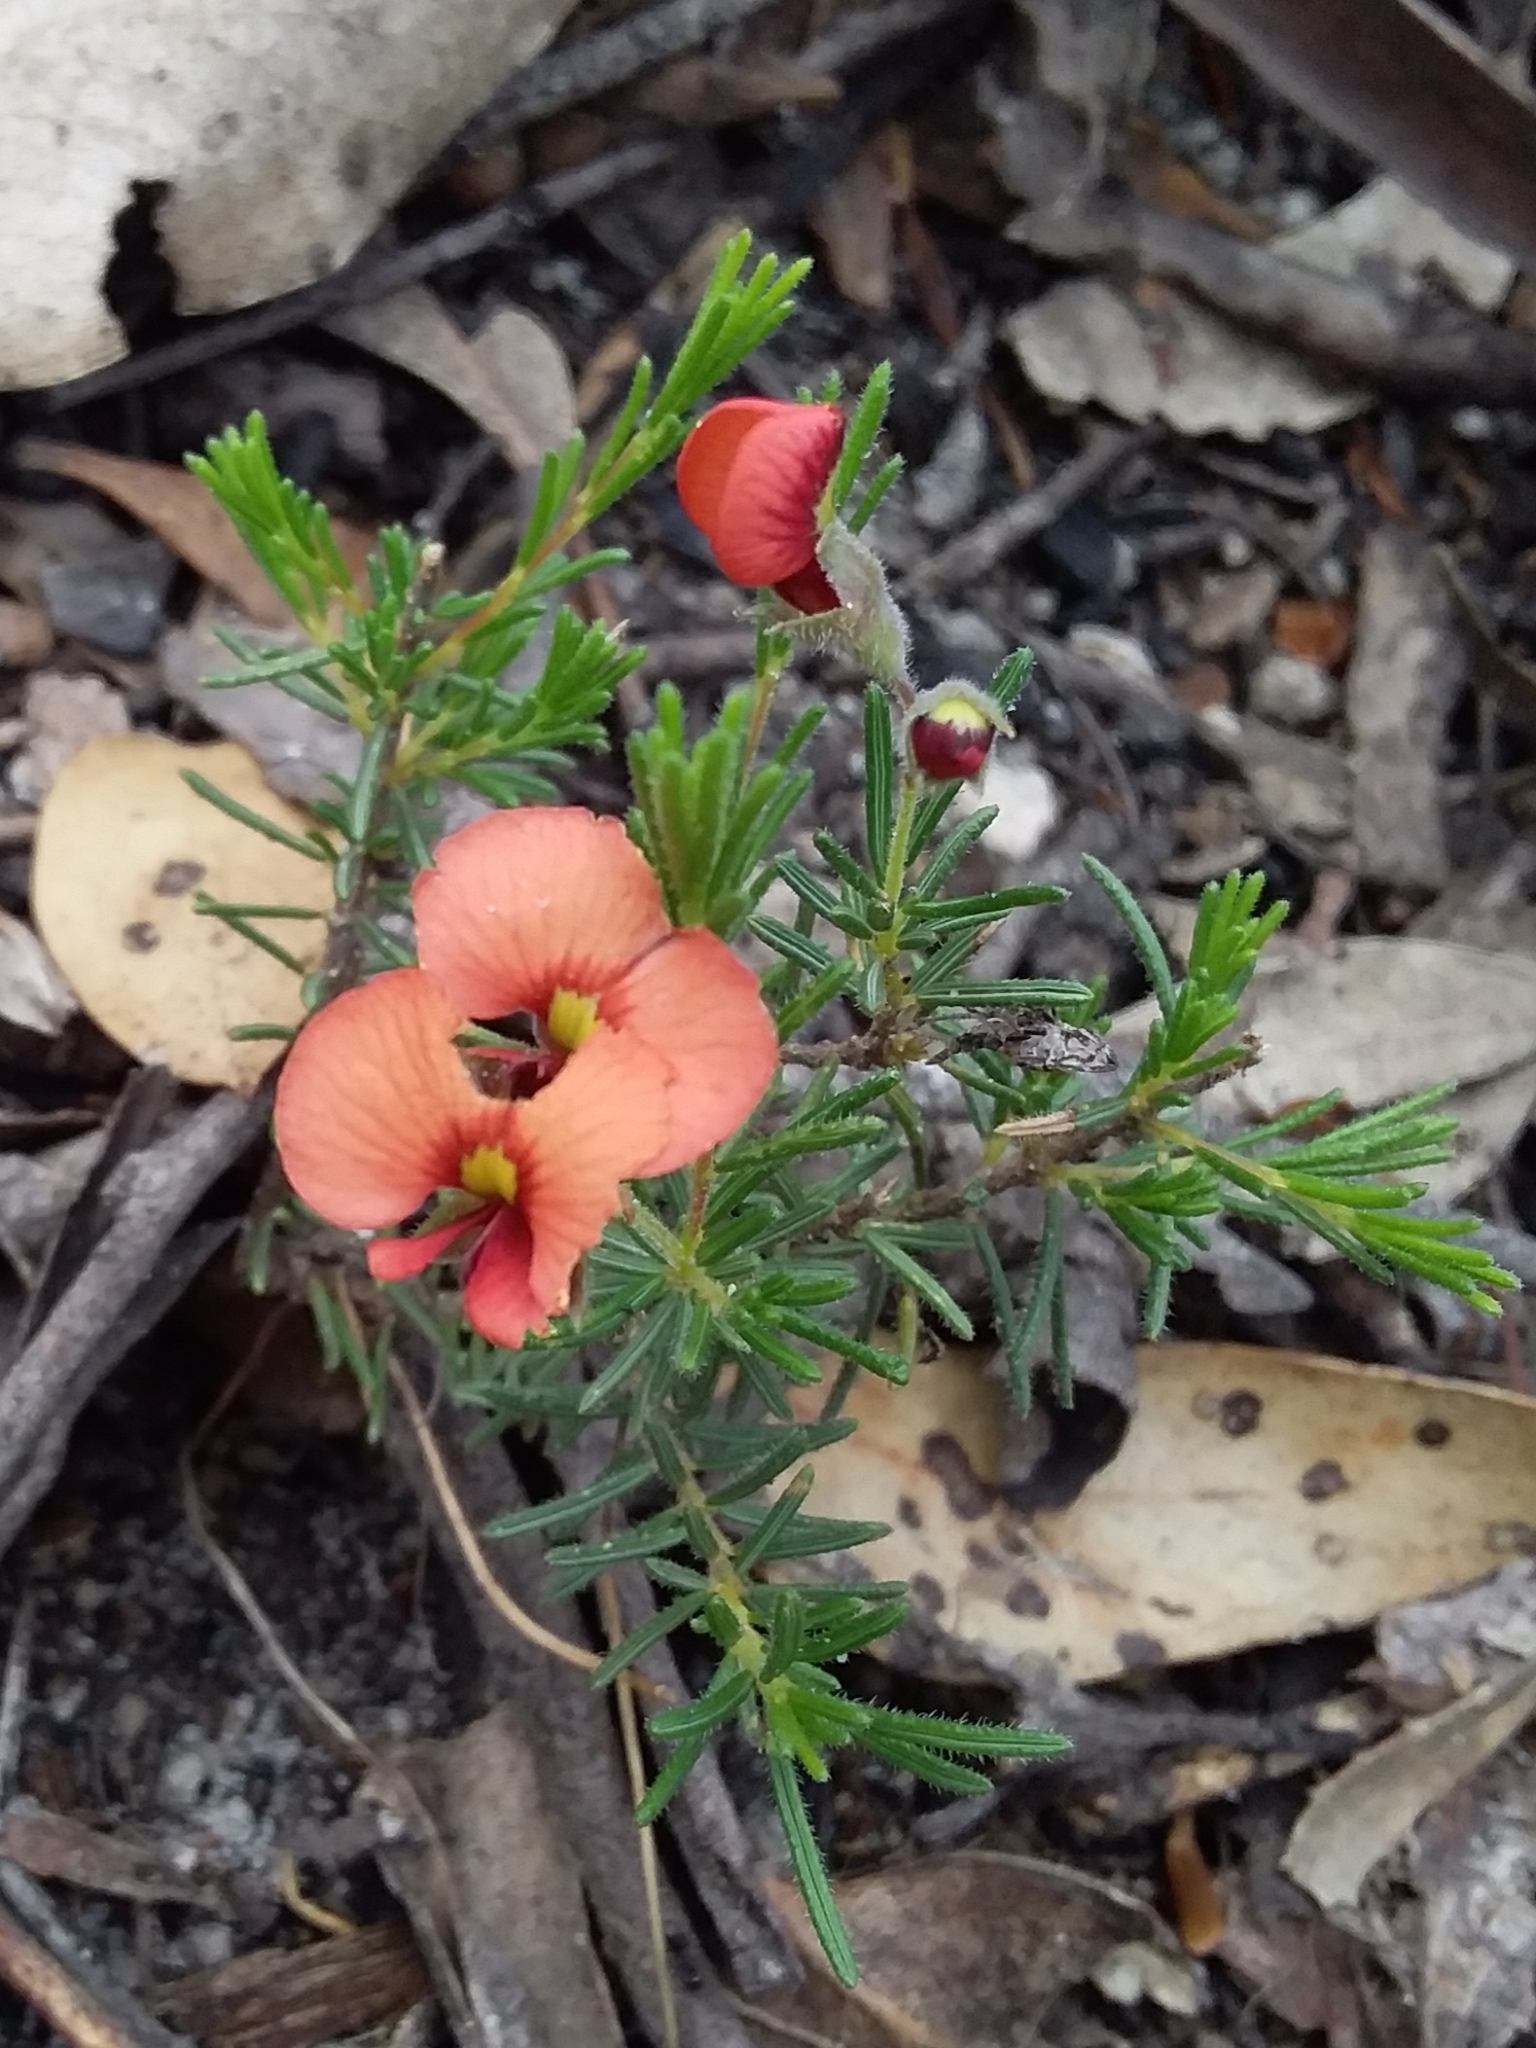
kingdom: Plantae
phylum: Tracheophyta
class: Magnoliopsida
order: Fabales
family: Fabaceae
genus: Dillwynia
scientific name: Dillwynia hispida
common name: Red parrot-pea
